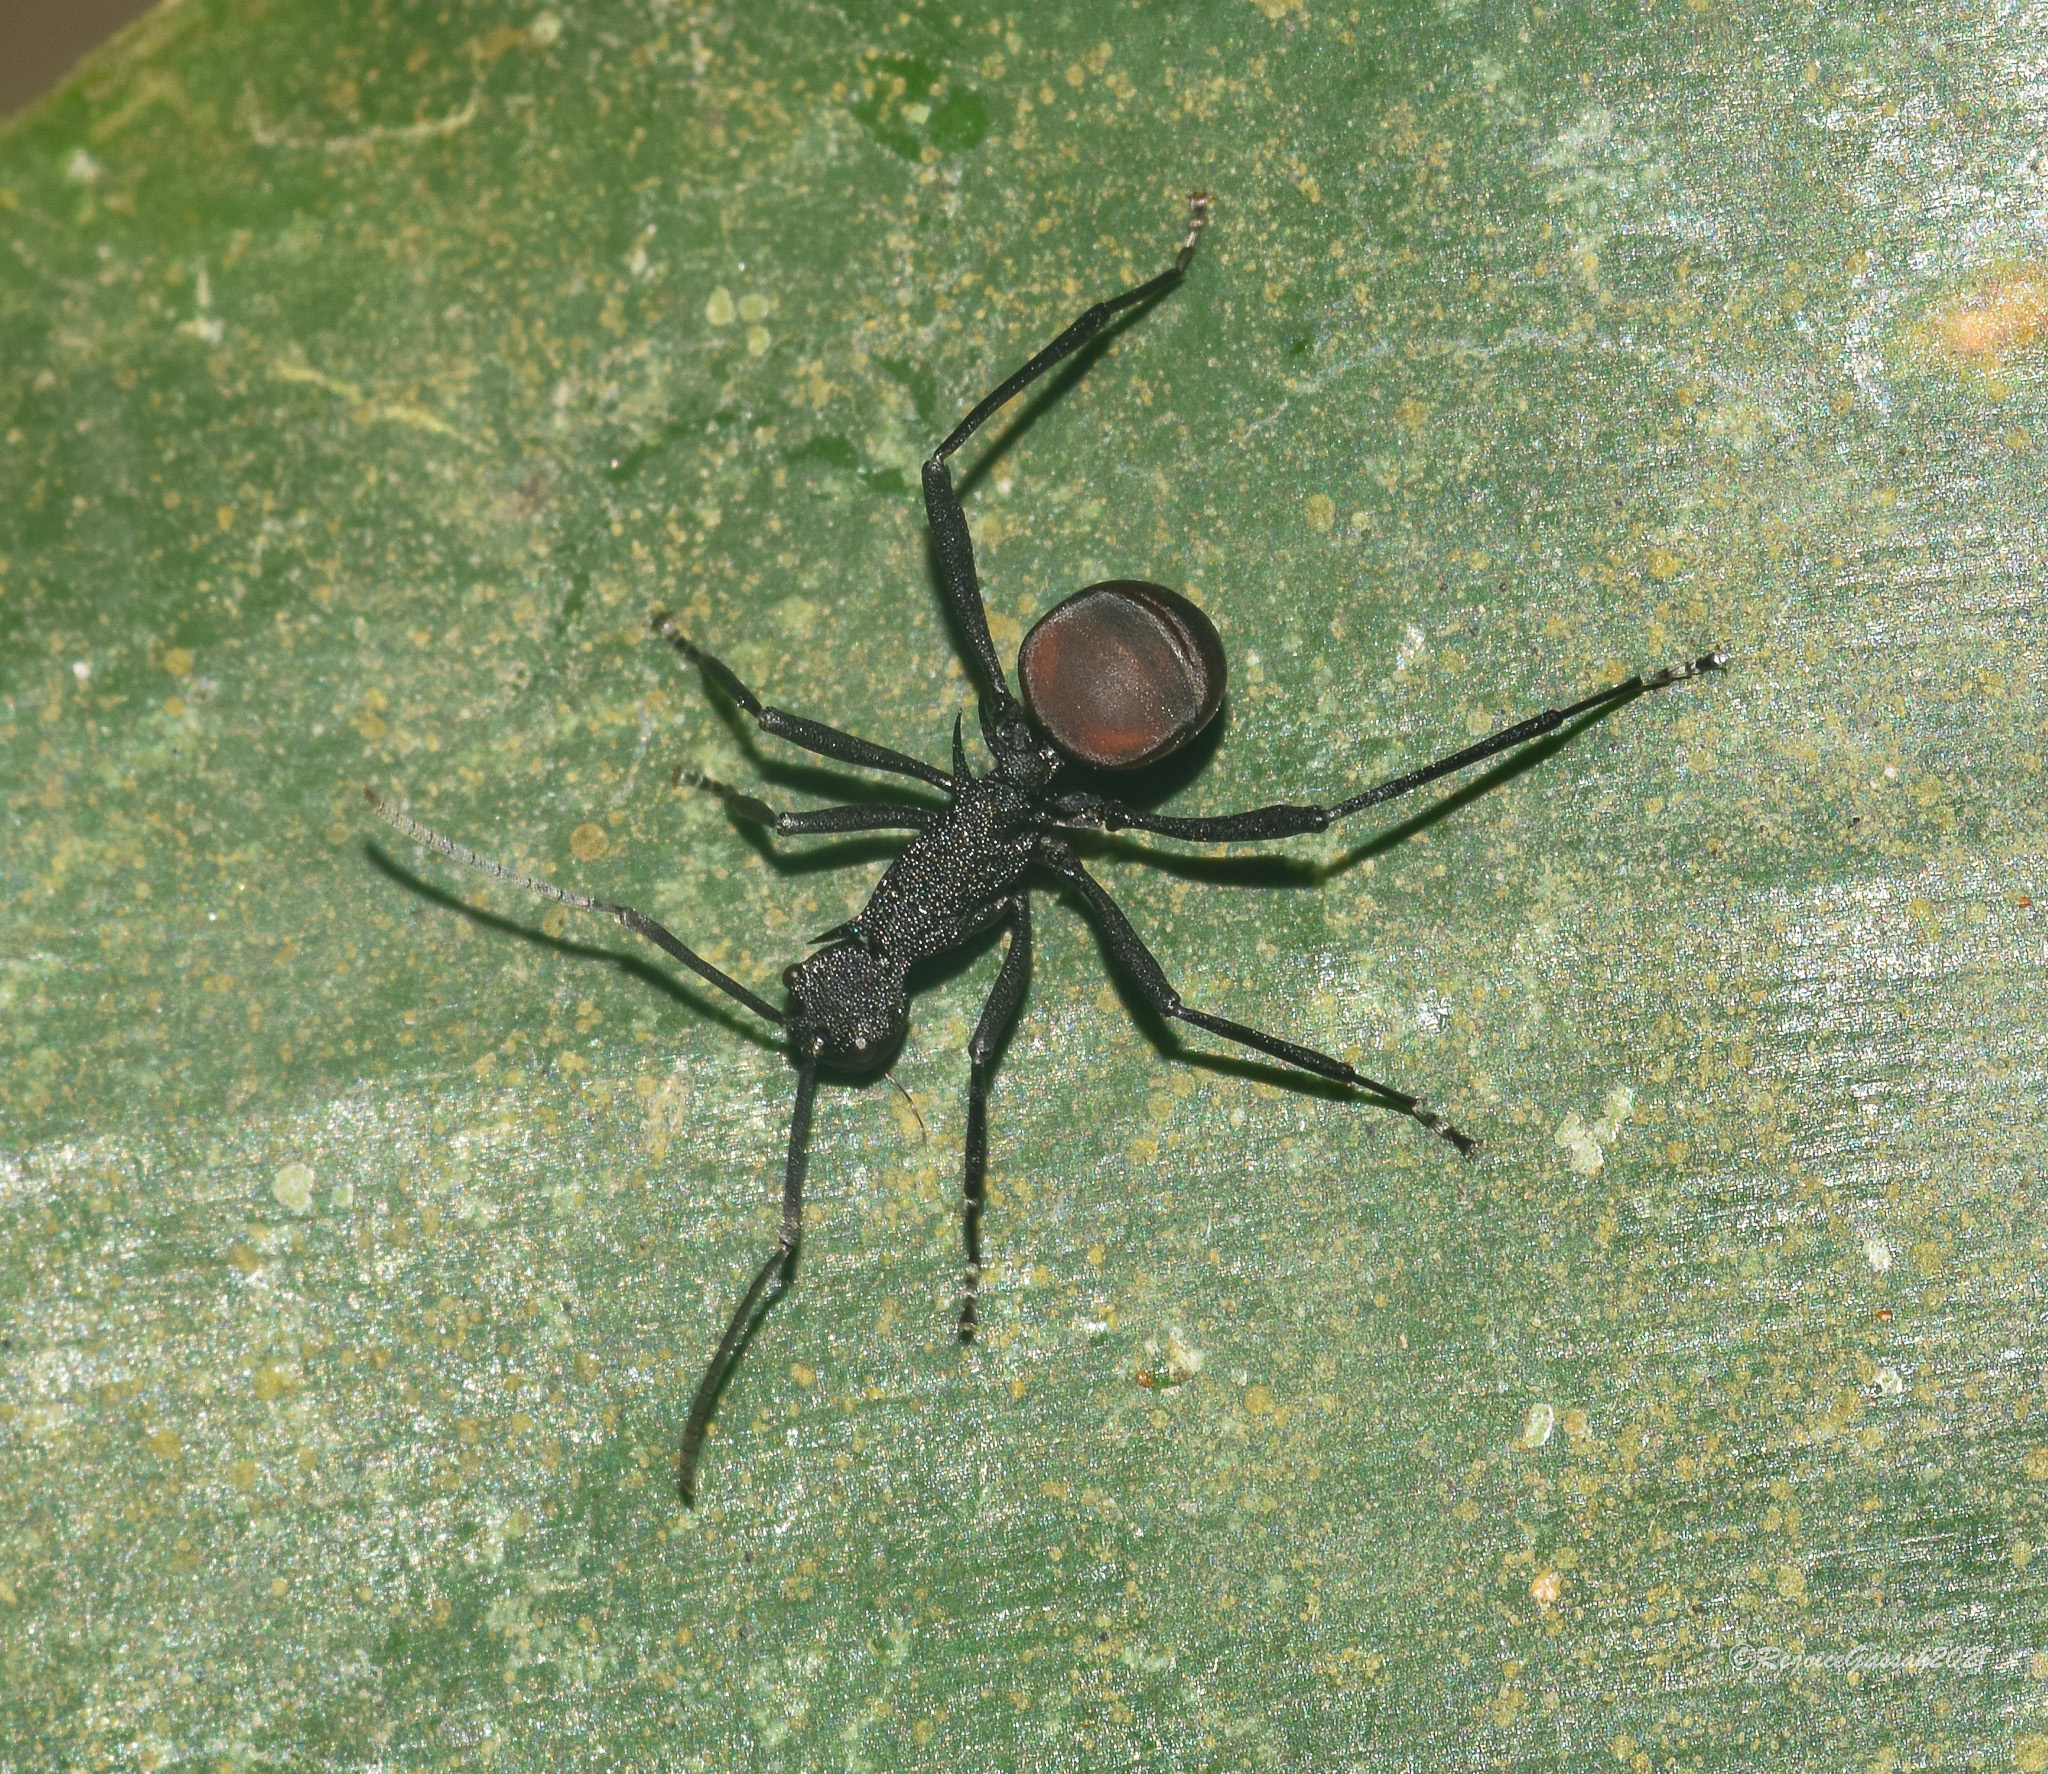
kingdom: Animalia
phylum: Arthropoda
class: Insecta
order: Hymenoptera
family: Formicidae
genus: Polyrhachis
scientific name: Polyrhachis armata
